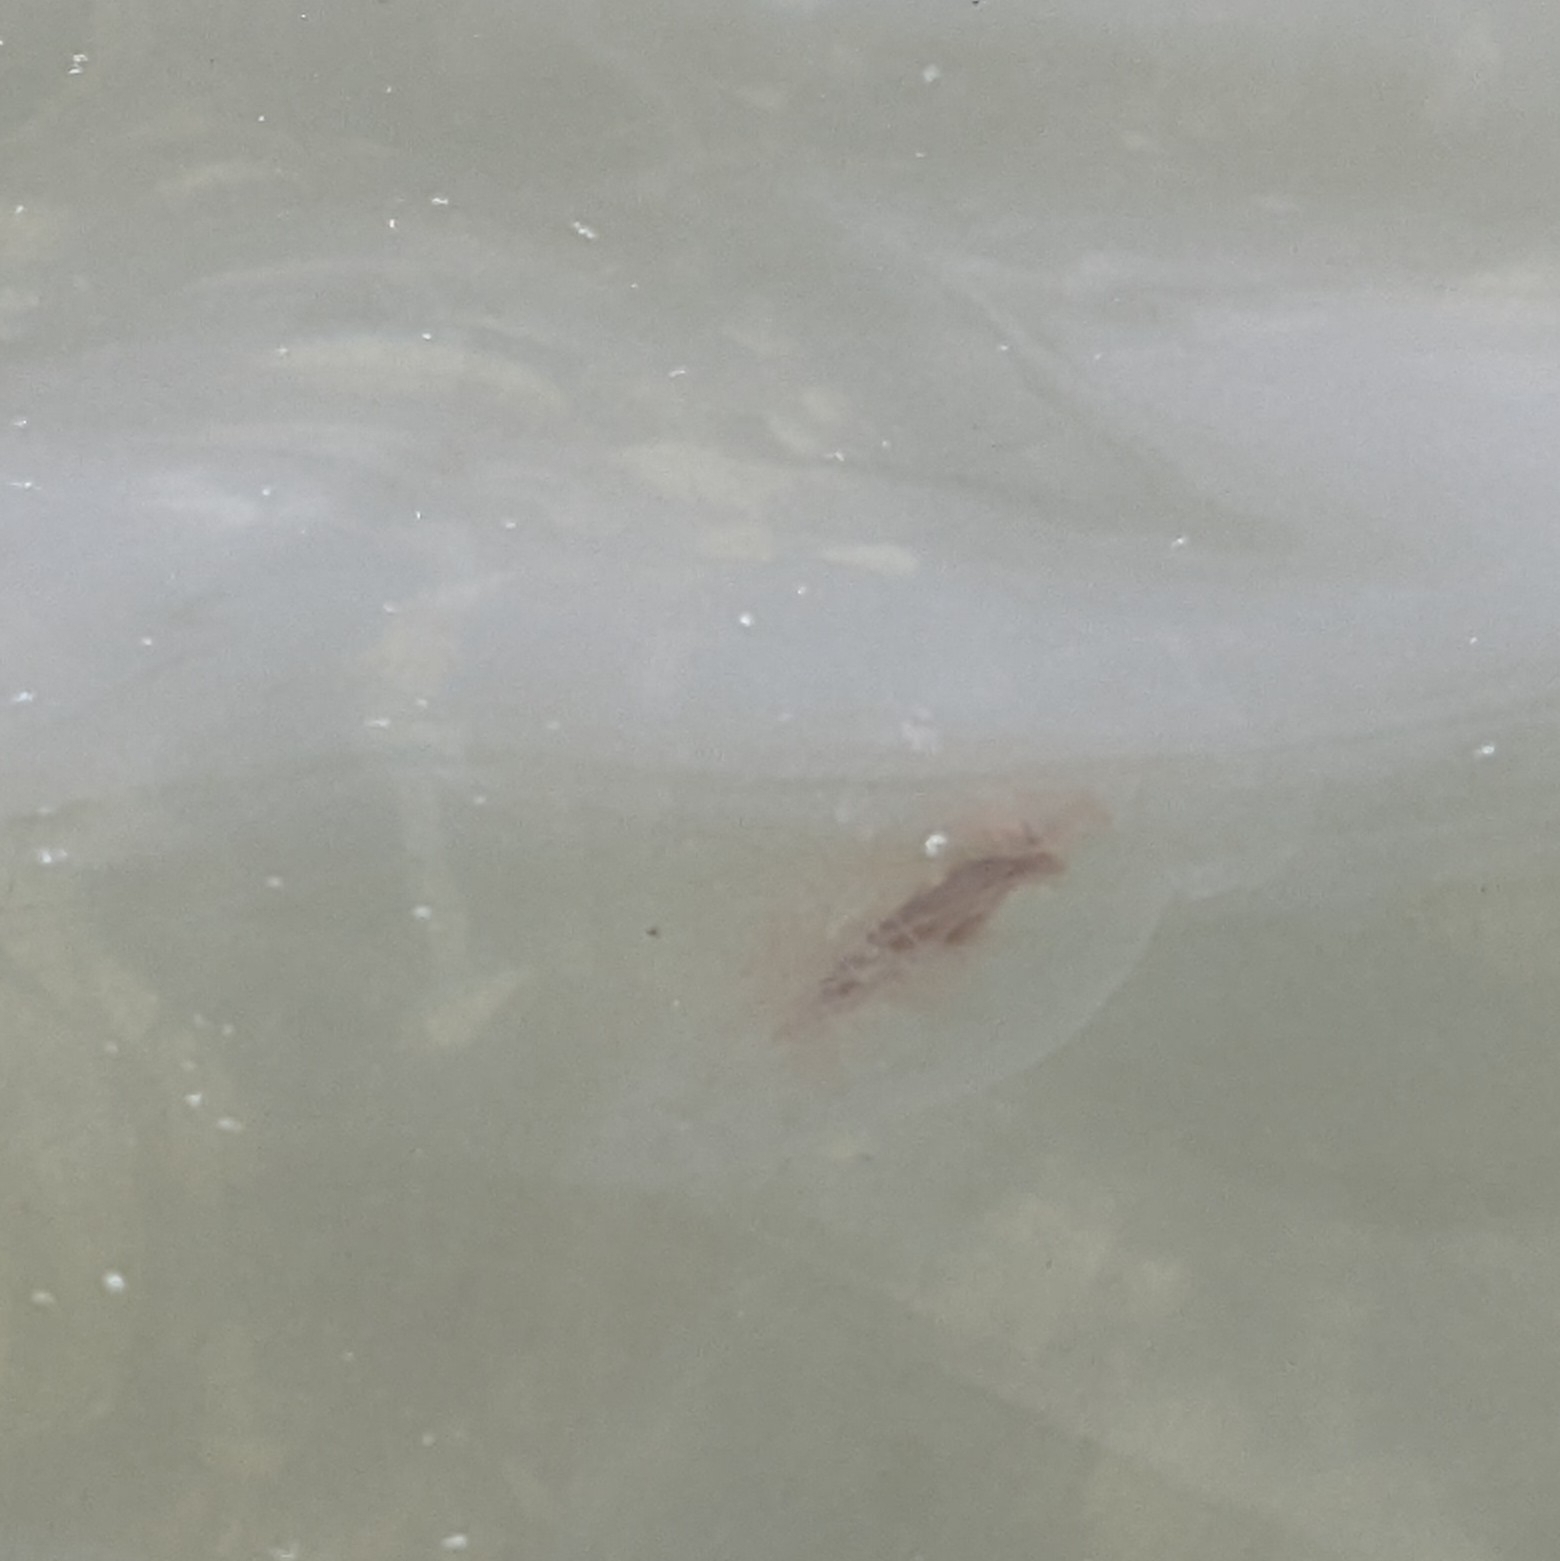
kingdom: Animalia
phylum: Cnidaria
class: Scyphozoa
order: Semaeostomeae
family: Cyaneidae
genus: Cyanea
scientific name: Cyanea fulva
